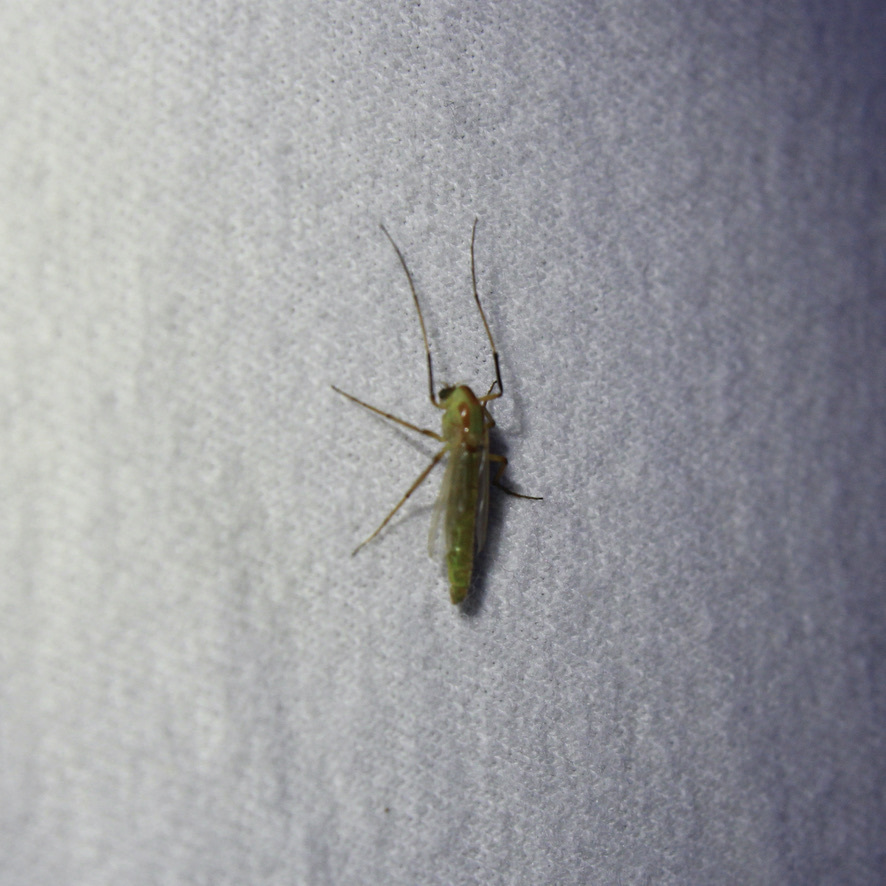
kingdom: Animalia
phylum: Arthropoda
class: Insecta
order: Diptera
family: Chironomidae
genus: Axarus
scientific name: Axarus
